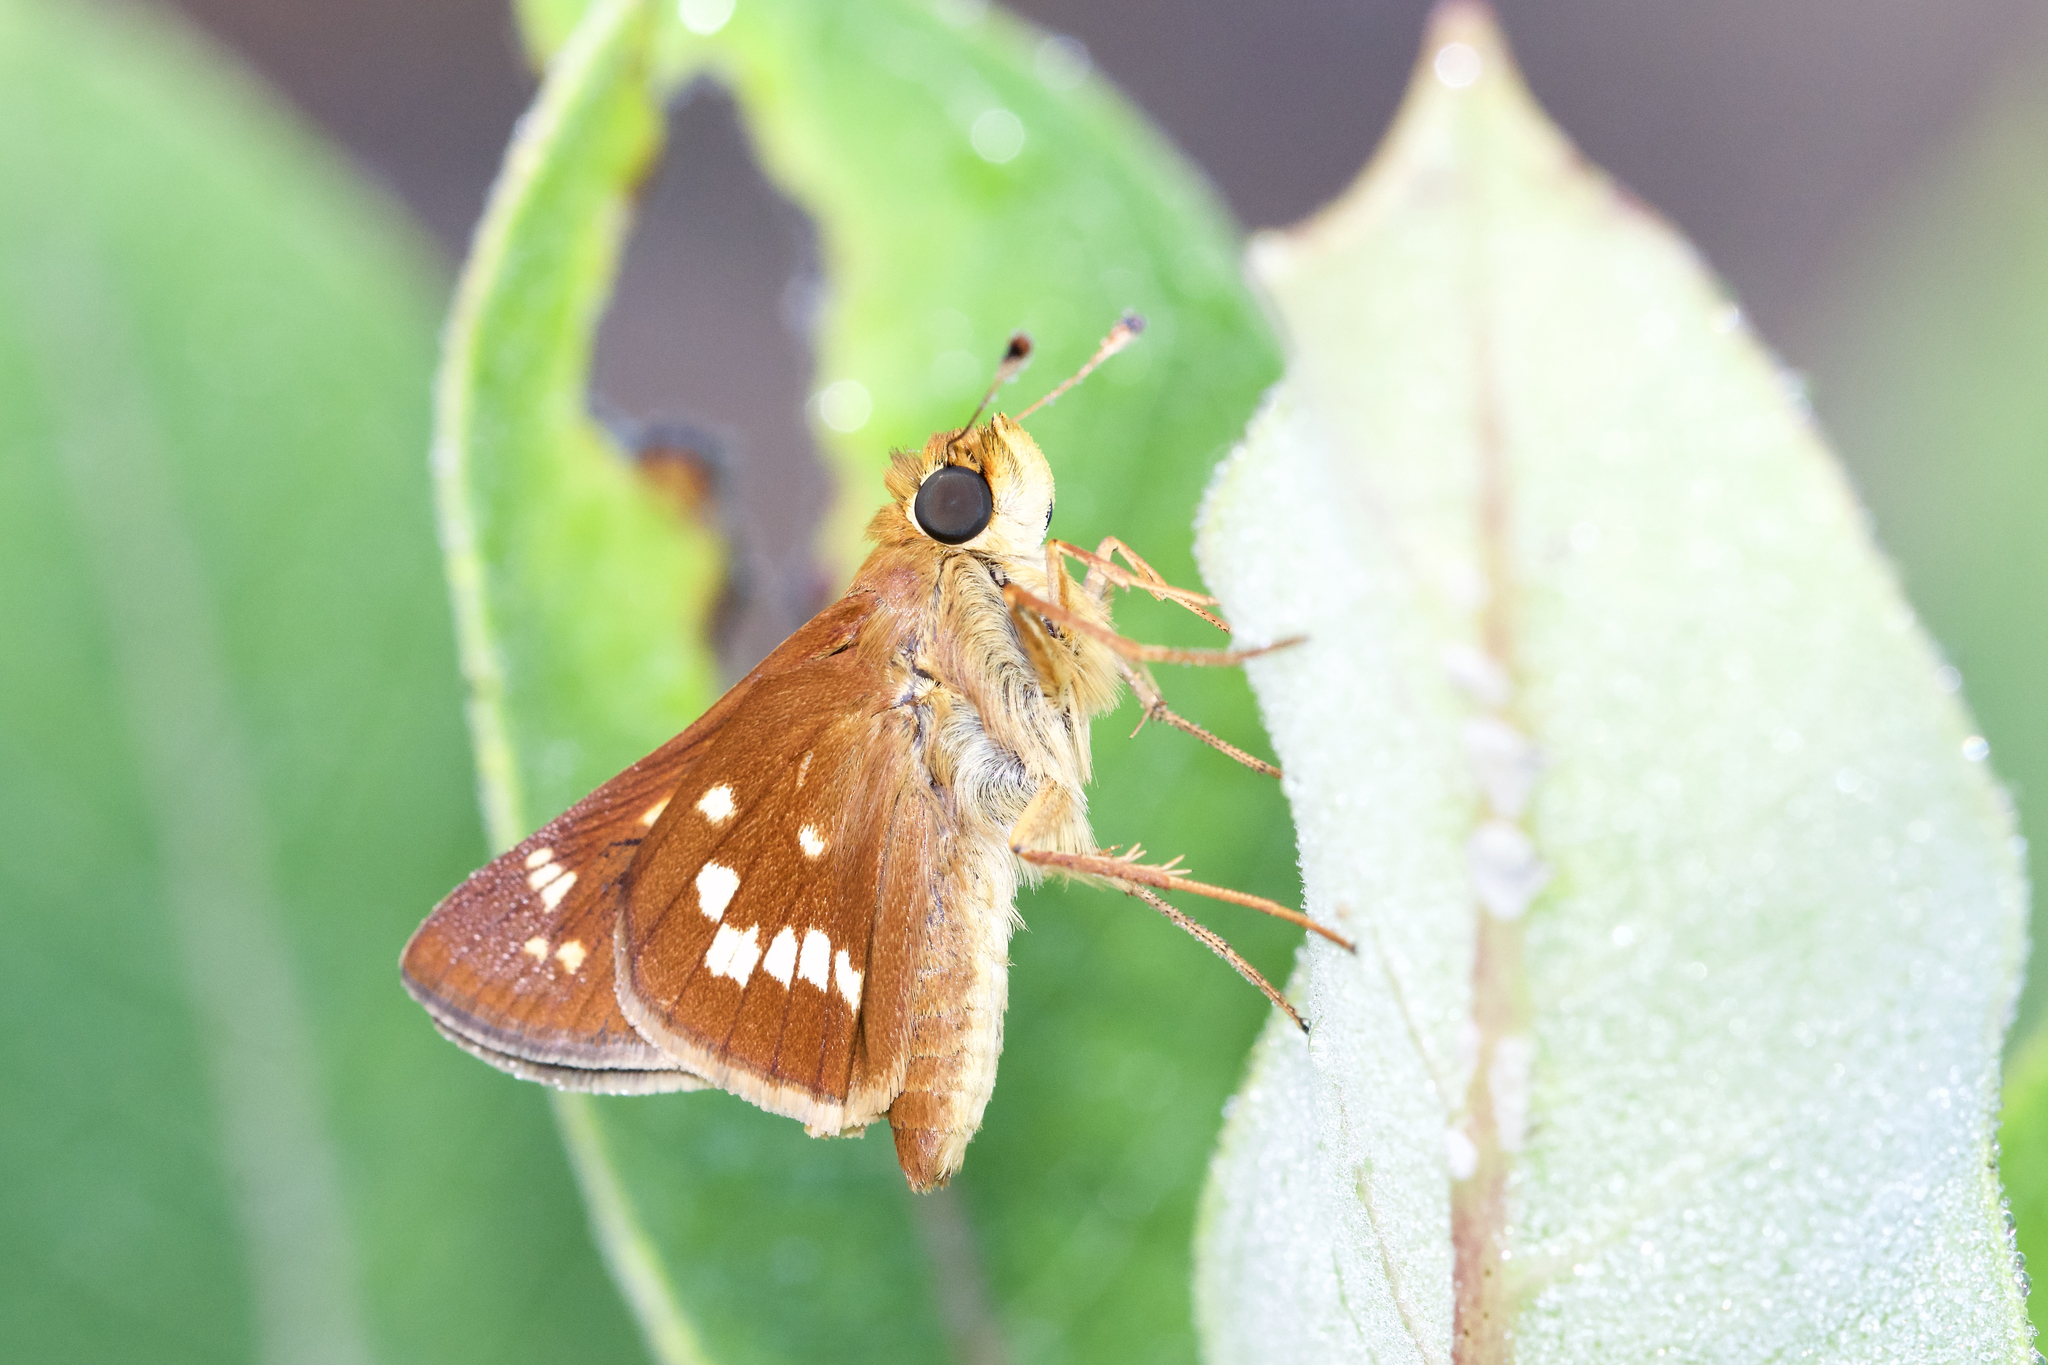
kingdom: Animalia
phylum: Arthropoda
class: Insecta
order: Lepidoptera
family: Hesperiidae
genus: Hesperia
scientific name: Hesperia leonardus
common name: Leonard's skipper
